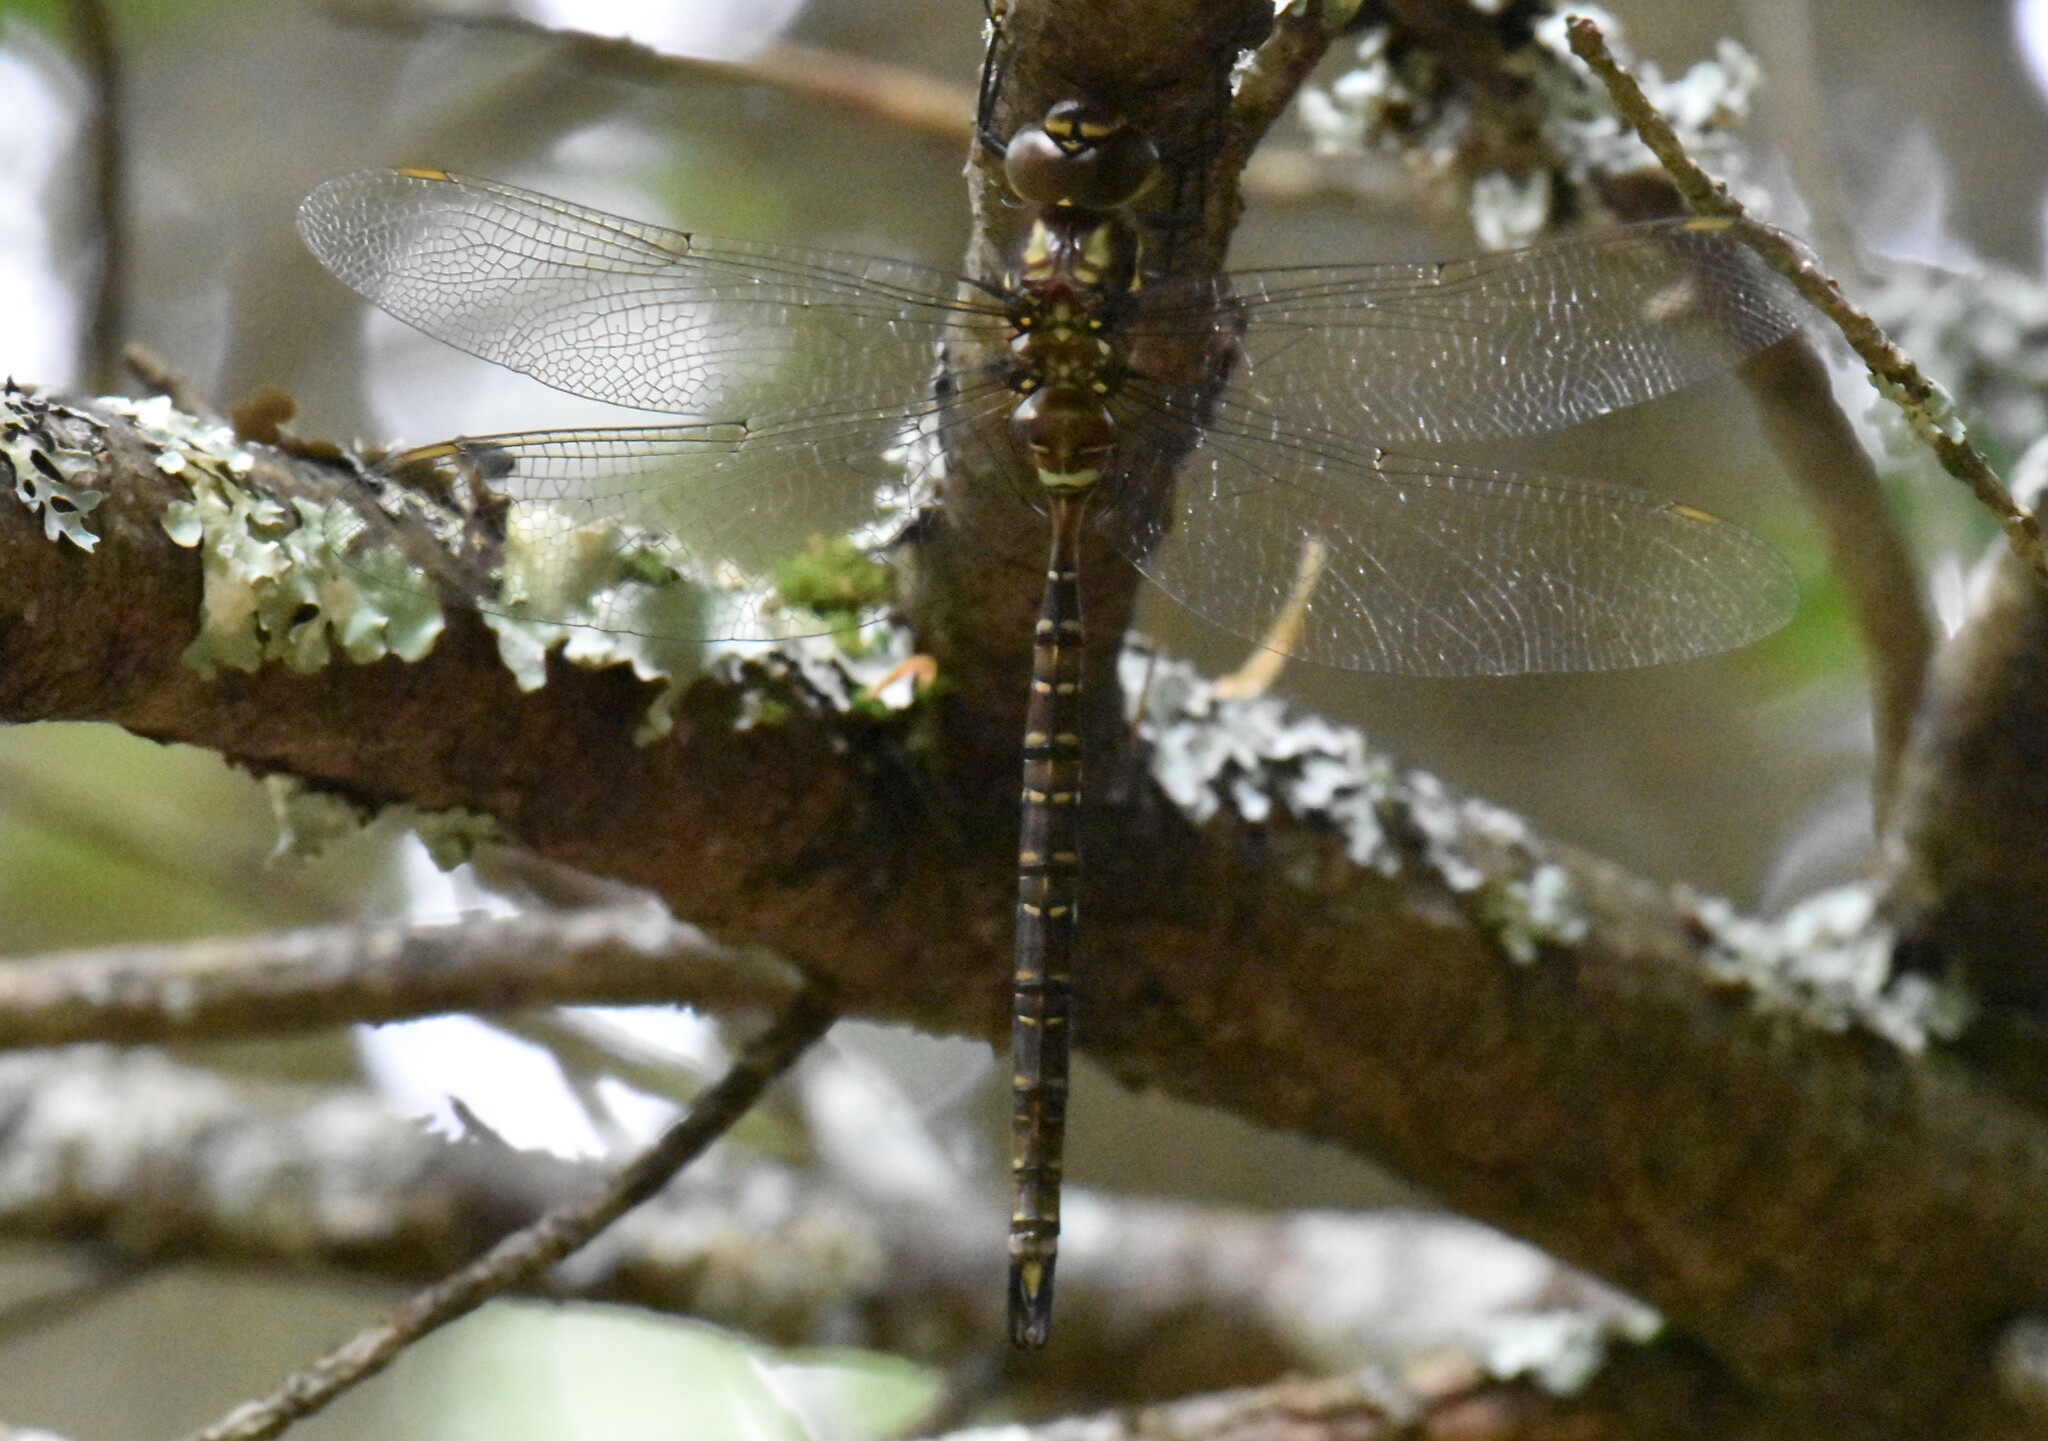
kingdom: Animalia
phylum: Arthropoda
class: Insecta
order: Odonata
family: Aeshnidae
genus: Aeshna
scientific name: Aeshna umbrosa
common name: Shadow darner
